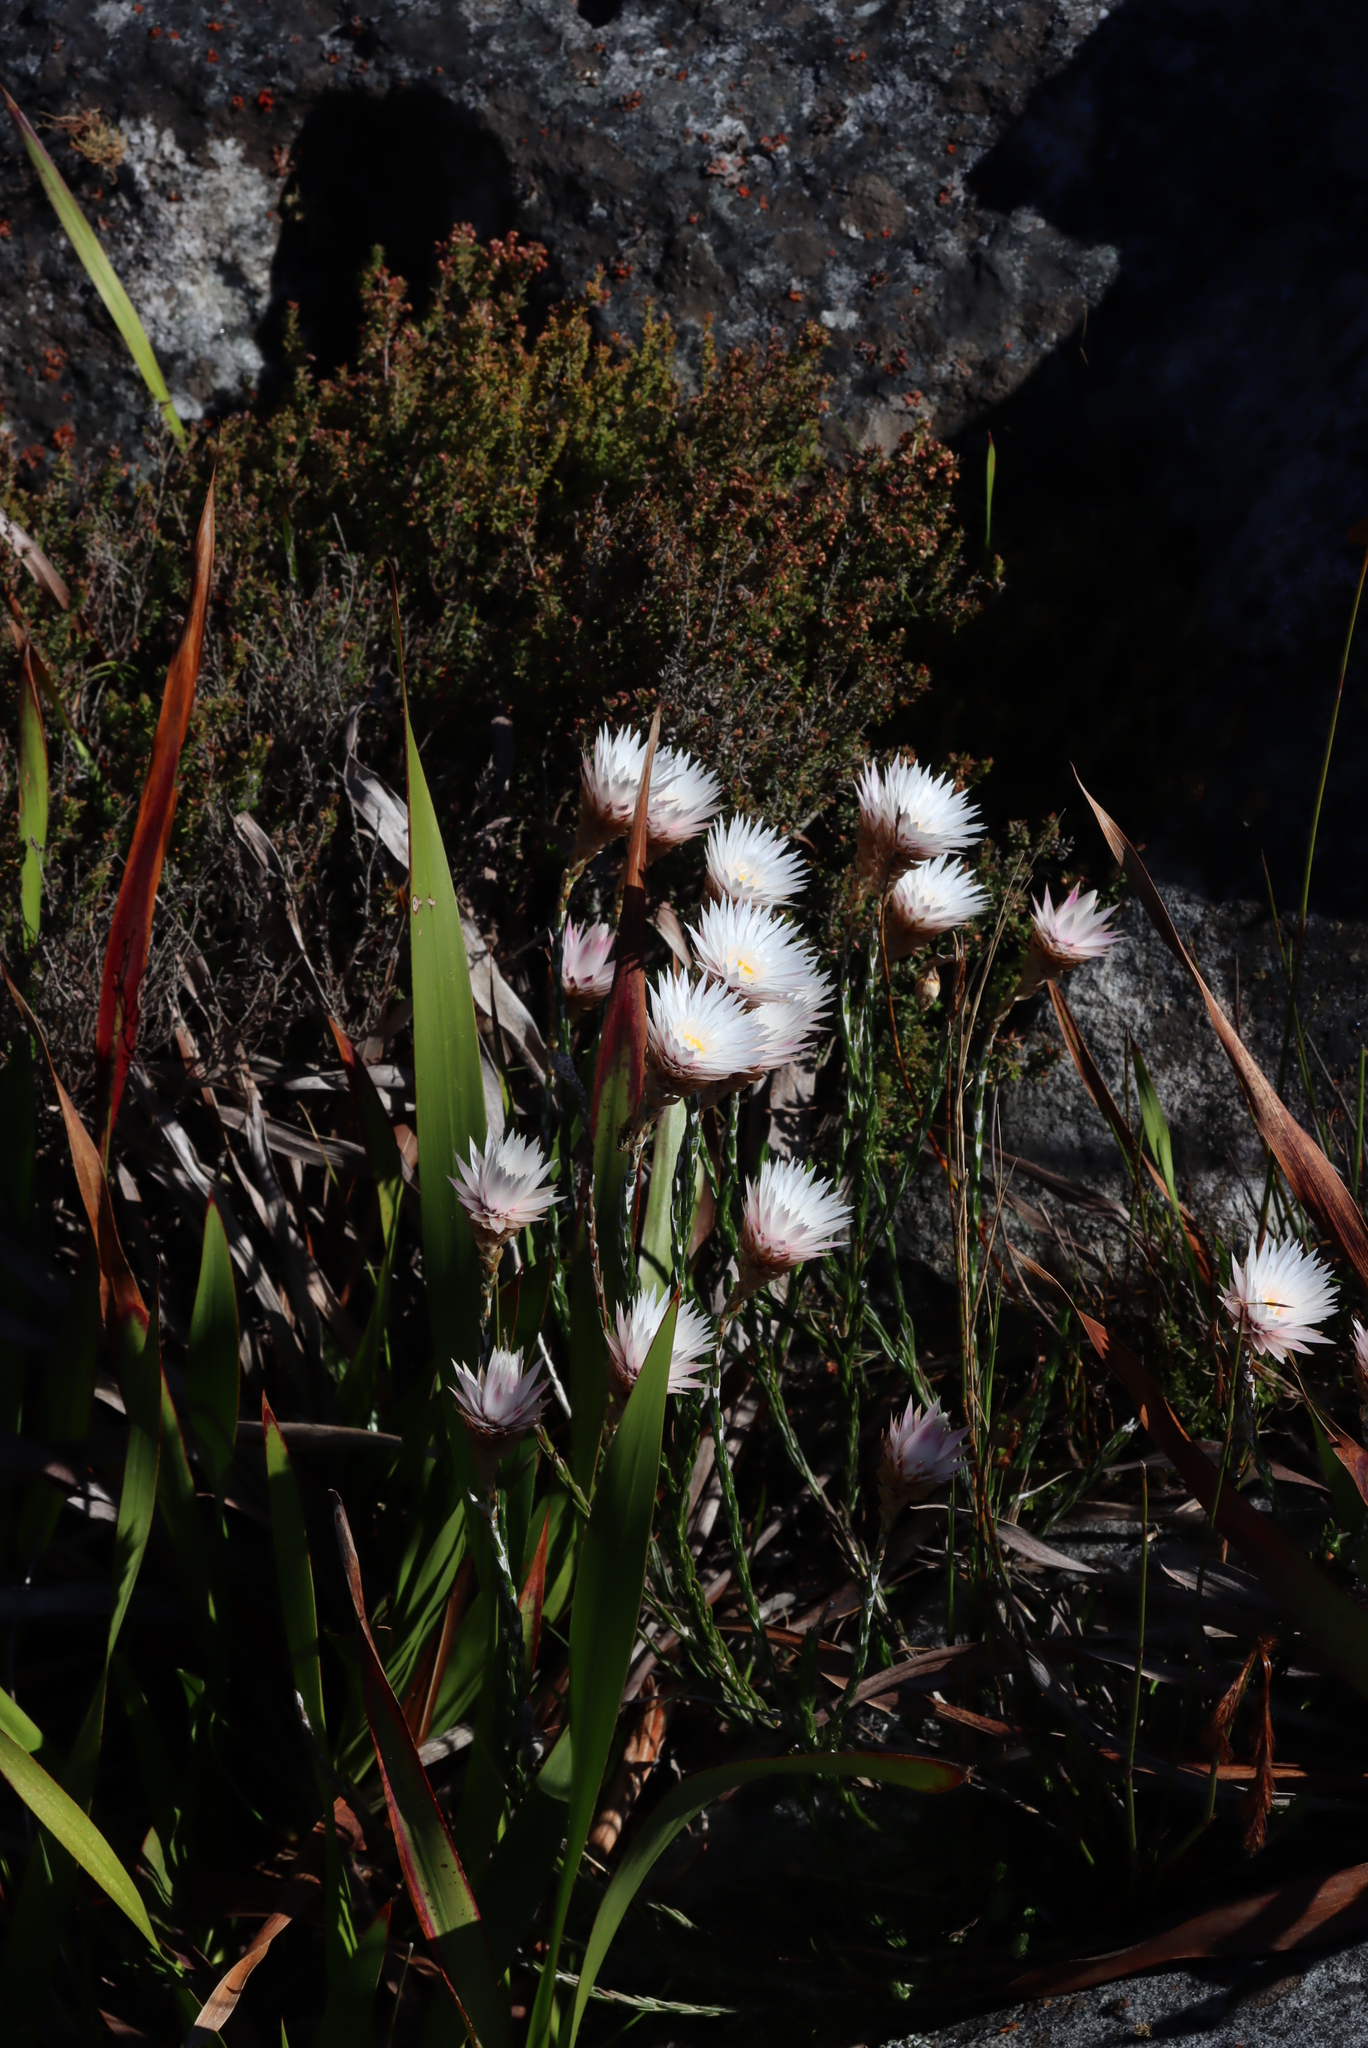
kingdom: Plantae
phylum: Tracheophyta
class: Magnoliopsida
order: Asterales
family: Asteraceae
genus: Edmondia
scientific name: Edmondia pinifolia
